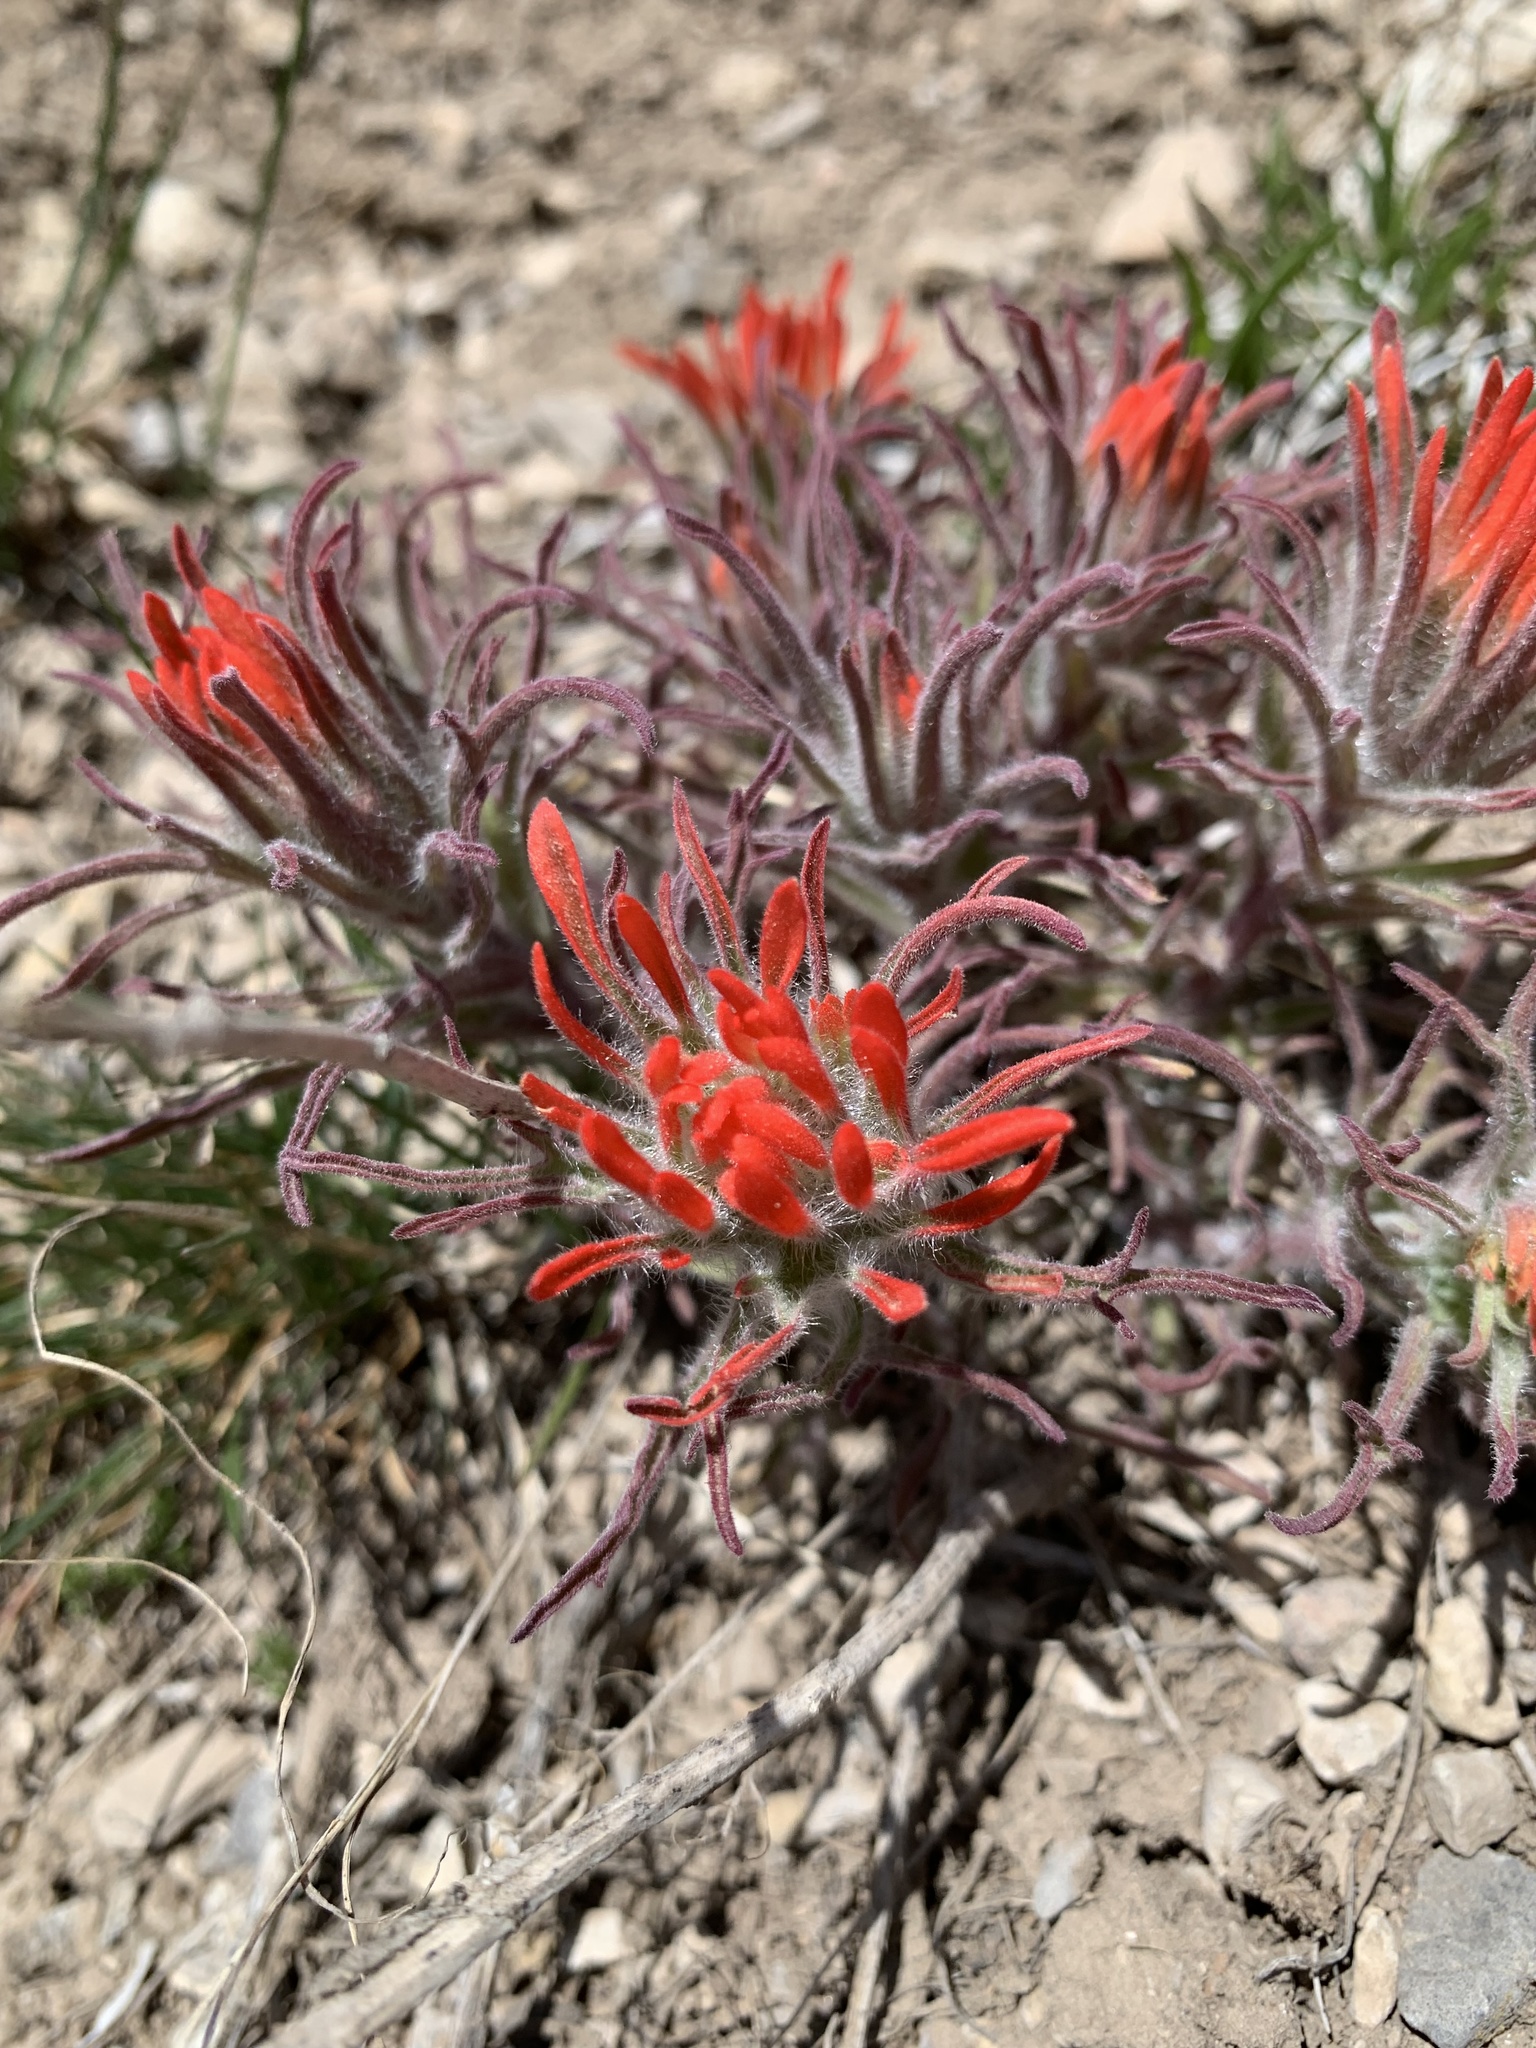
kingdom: Plantae
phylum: Tracheophyta
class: Magnoliopsida
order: Lamiales
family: Orobanchaceae
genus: Castilleja
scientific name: Castilleja chromosa
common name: Desert paintbrush
